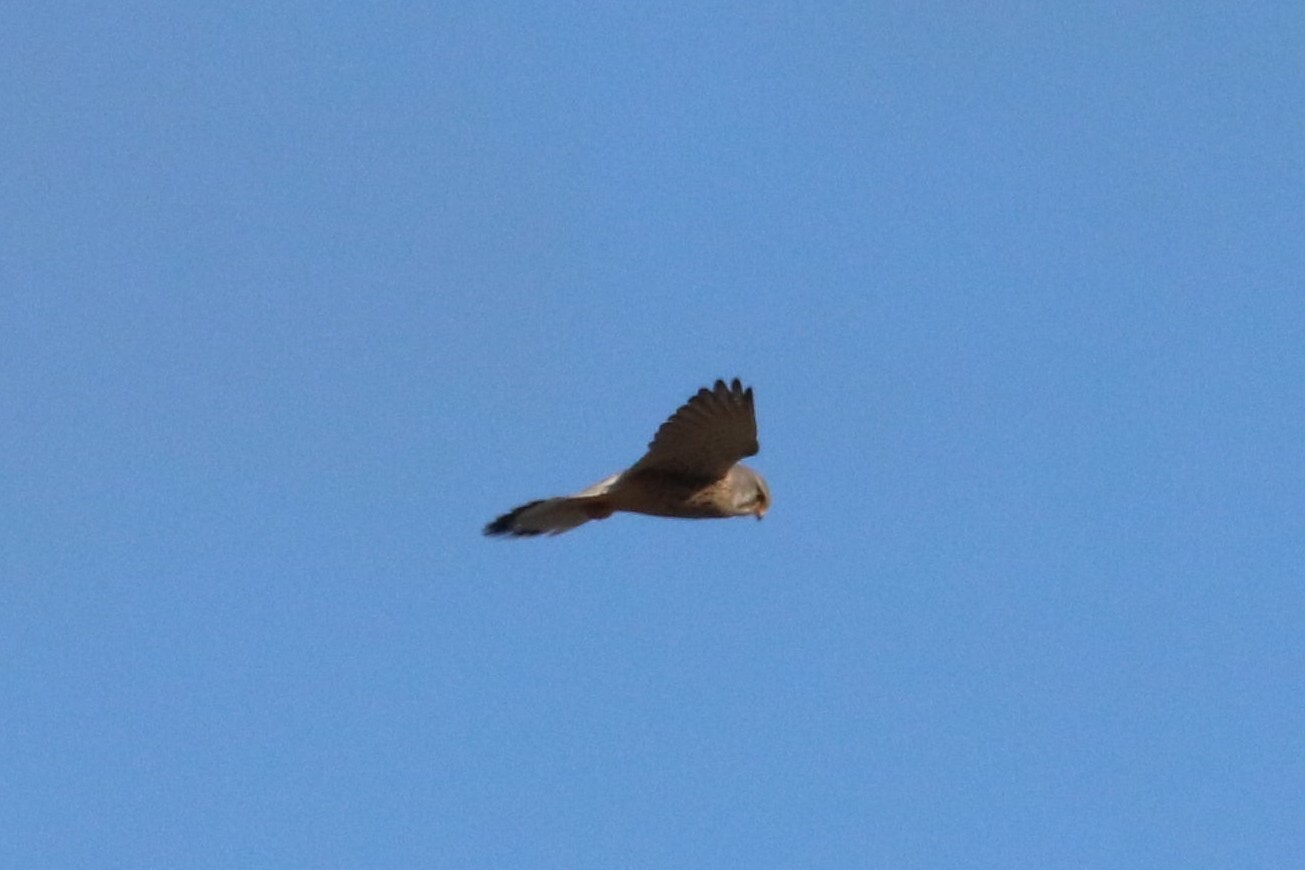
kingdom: Animalia
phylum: Chordata
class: Aves
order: Falconiformes
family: Falconidae
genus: Falco
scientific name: Falco tinnunculus
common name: Common kestrel
